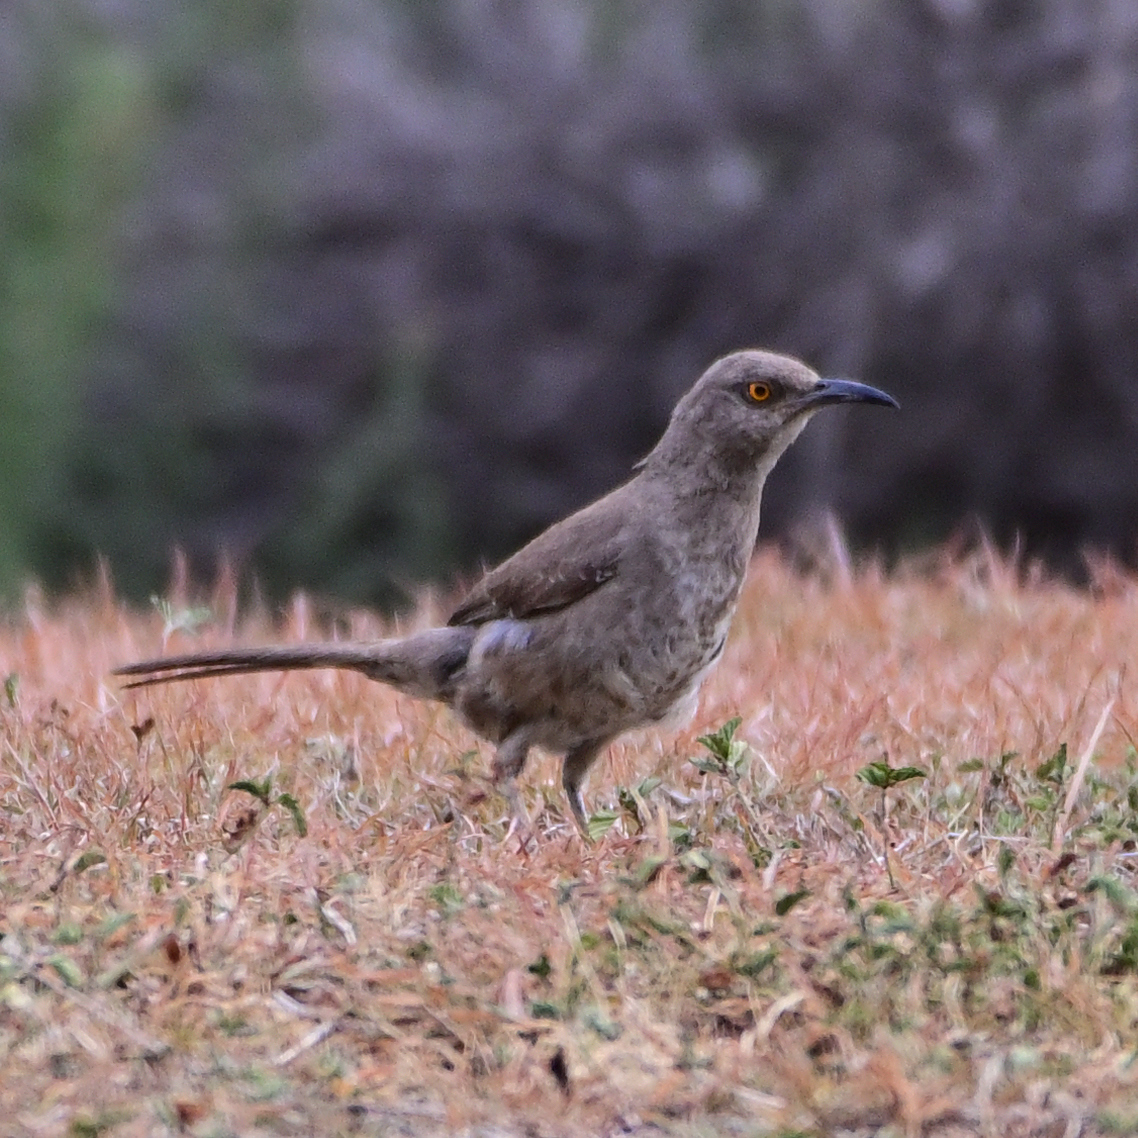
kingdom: Animalia
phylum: Chordata
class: Aves
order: Passeriformes
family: Mimidae
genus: Toxostoma
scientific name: Toxostoma curvirostre
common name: Curve-billed thrasher
